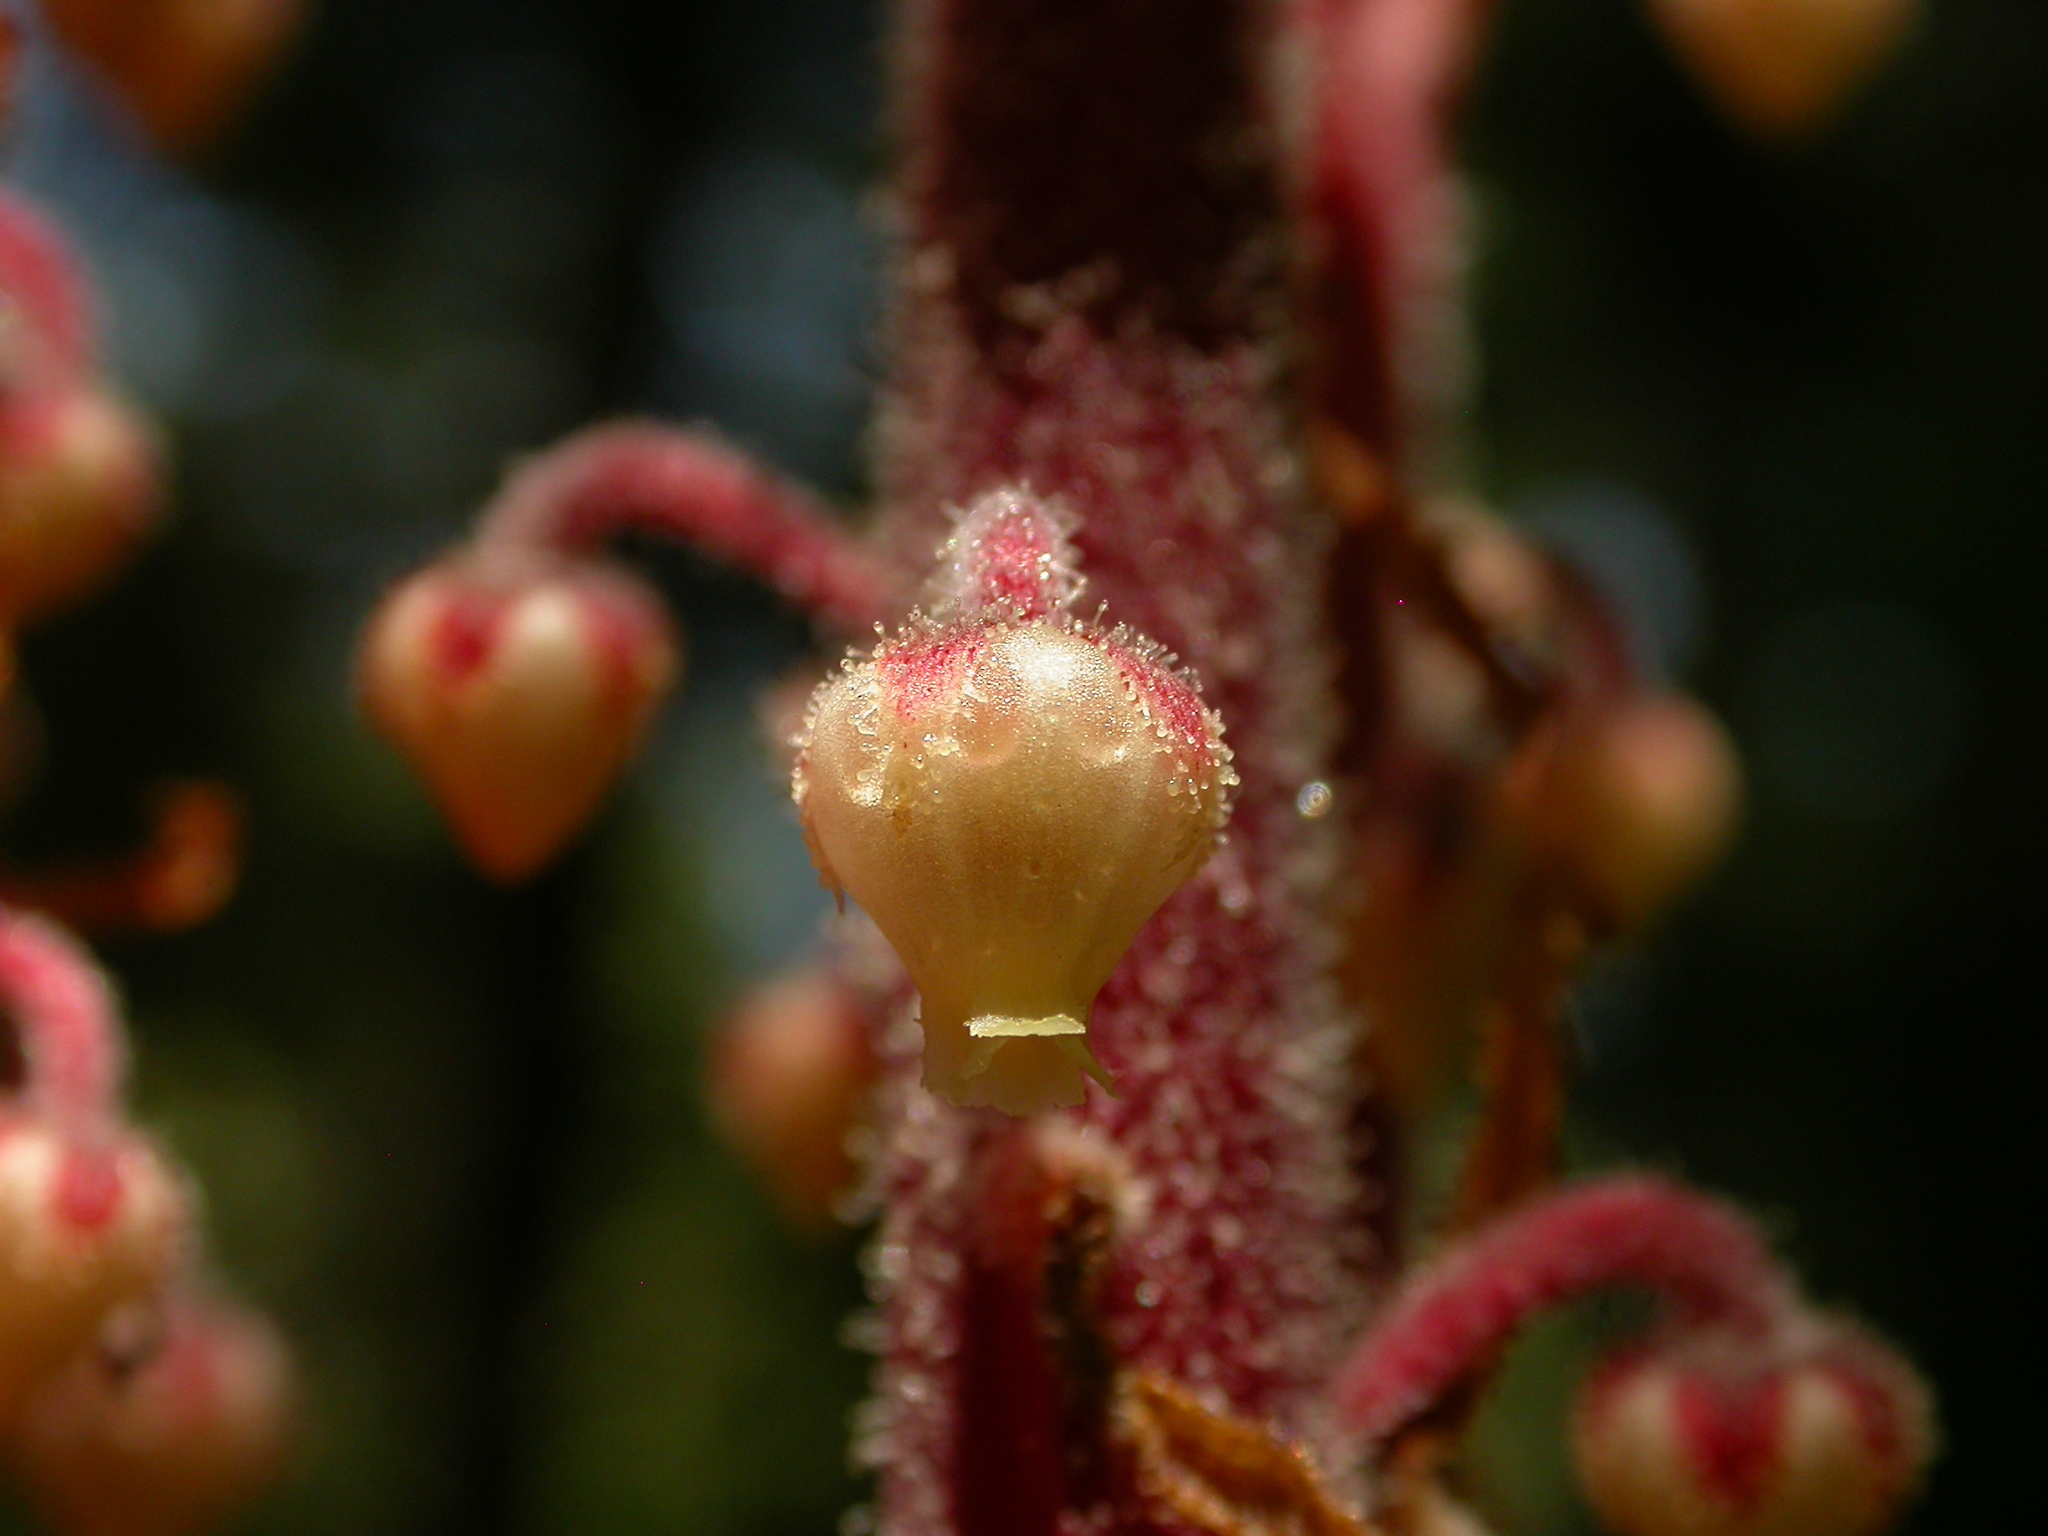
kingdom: Plantae
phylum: Tracheophyta
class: Magnoliopsida
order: Ericales
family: Ericaceae
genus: Pterospora
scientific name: Pterospora andromedea
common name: Giant bird's-nest
